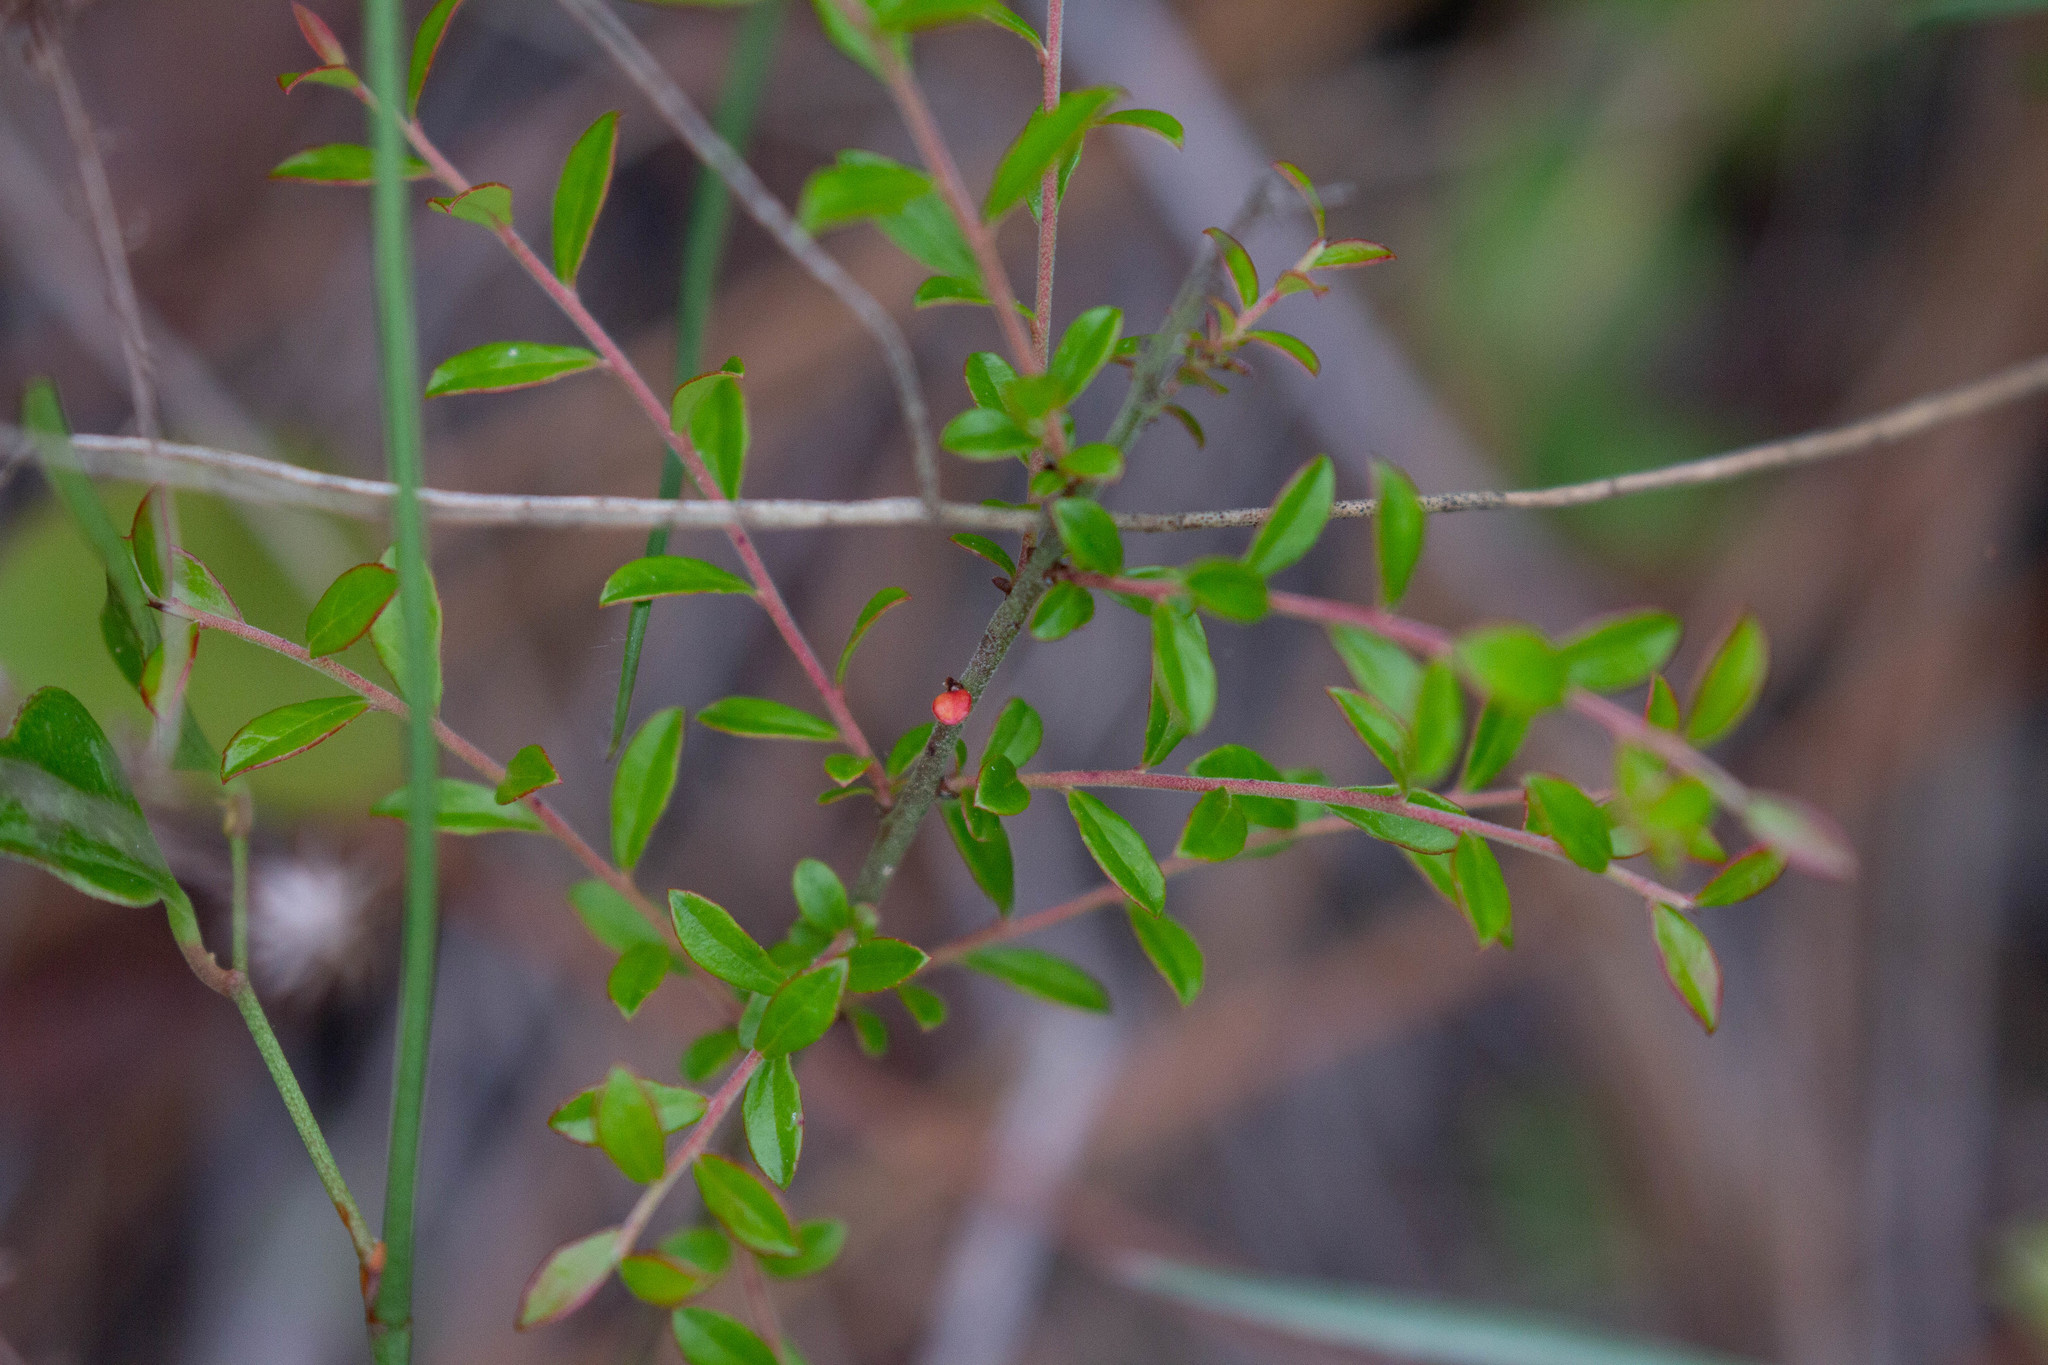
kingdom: Plantae
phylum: Tracheophyta
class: Magnoliopsida
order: Ericales
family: Ericaceae
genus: Vaccinium
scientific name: Vaccinium myrsinites
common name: Evergreen blueberry
